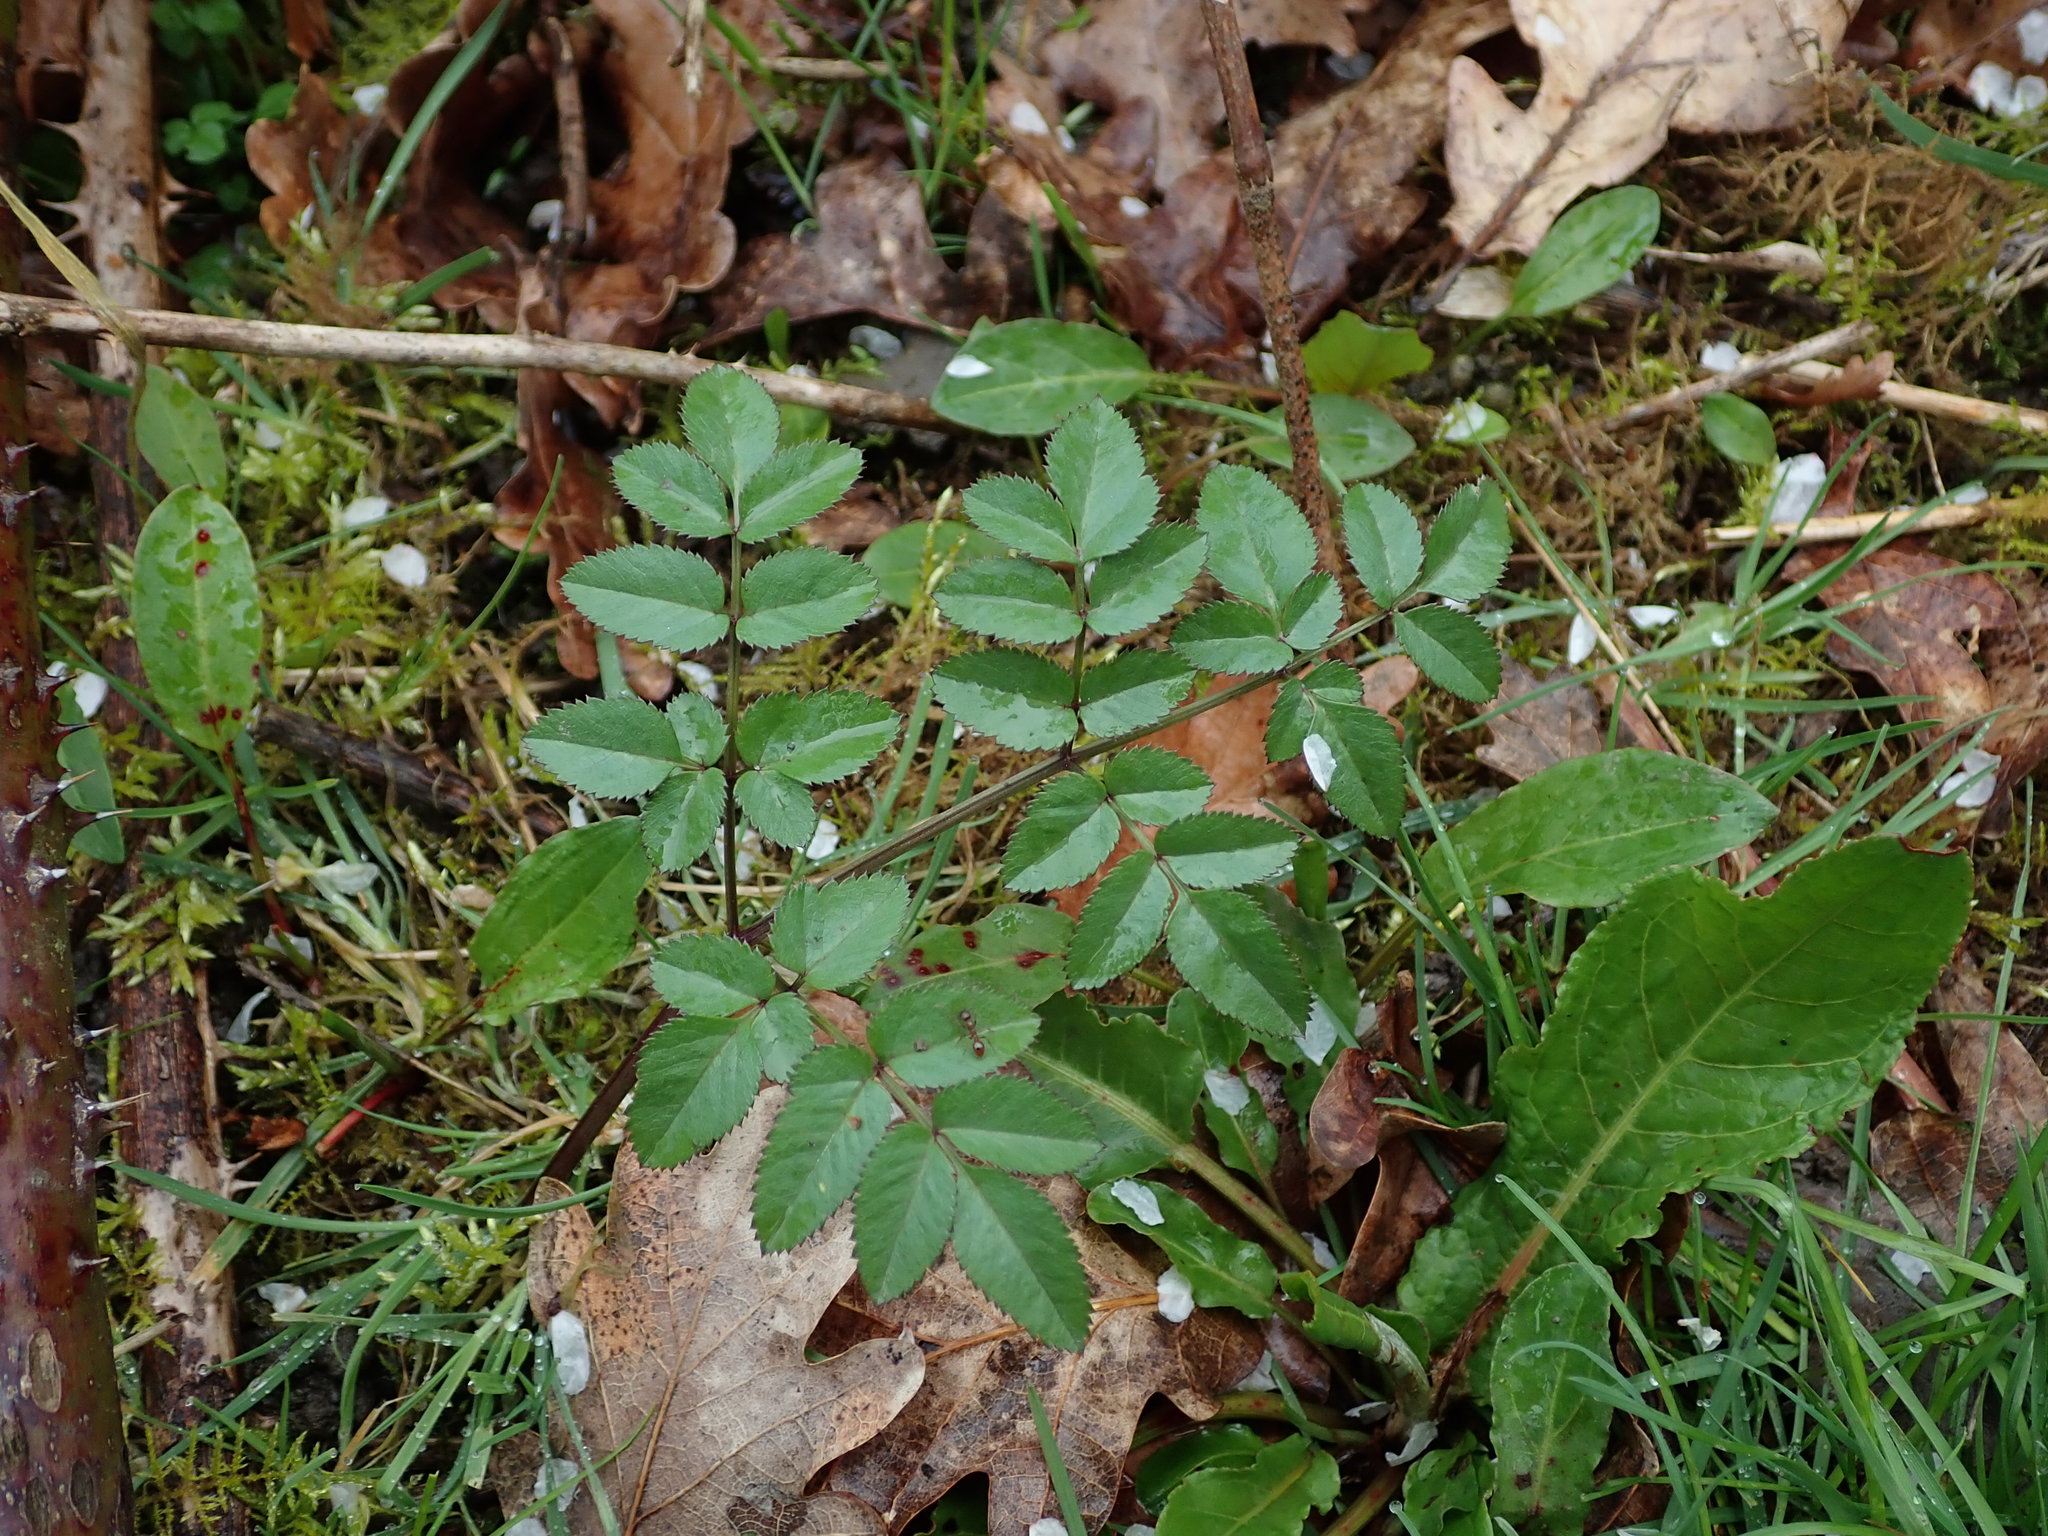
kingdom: Plantae
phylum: Tracheophyta
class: Magnoliopsida
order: Apiales
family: Apiaceae
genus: Angelica
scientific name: Angelica sylvestris
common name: Wild angelica
